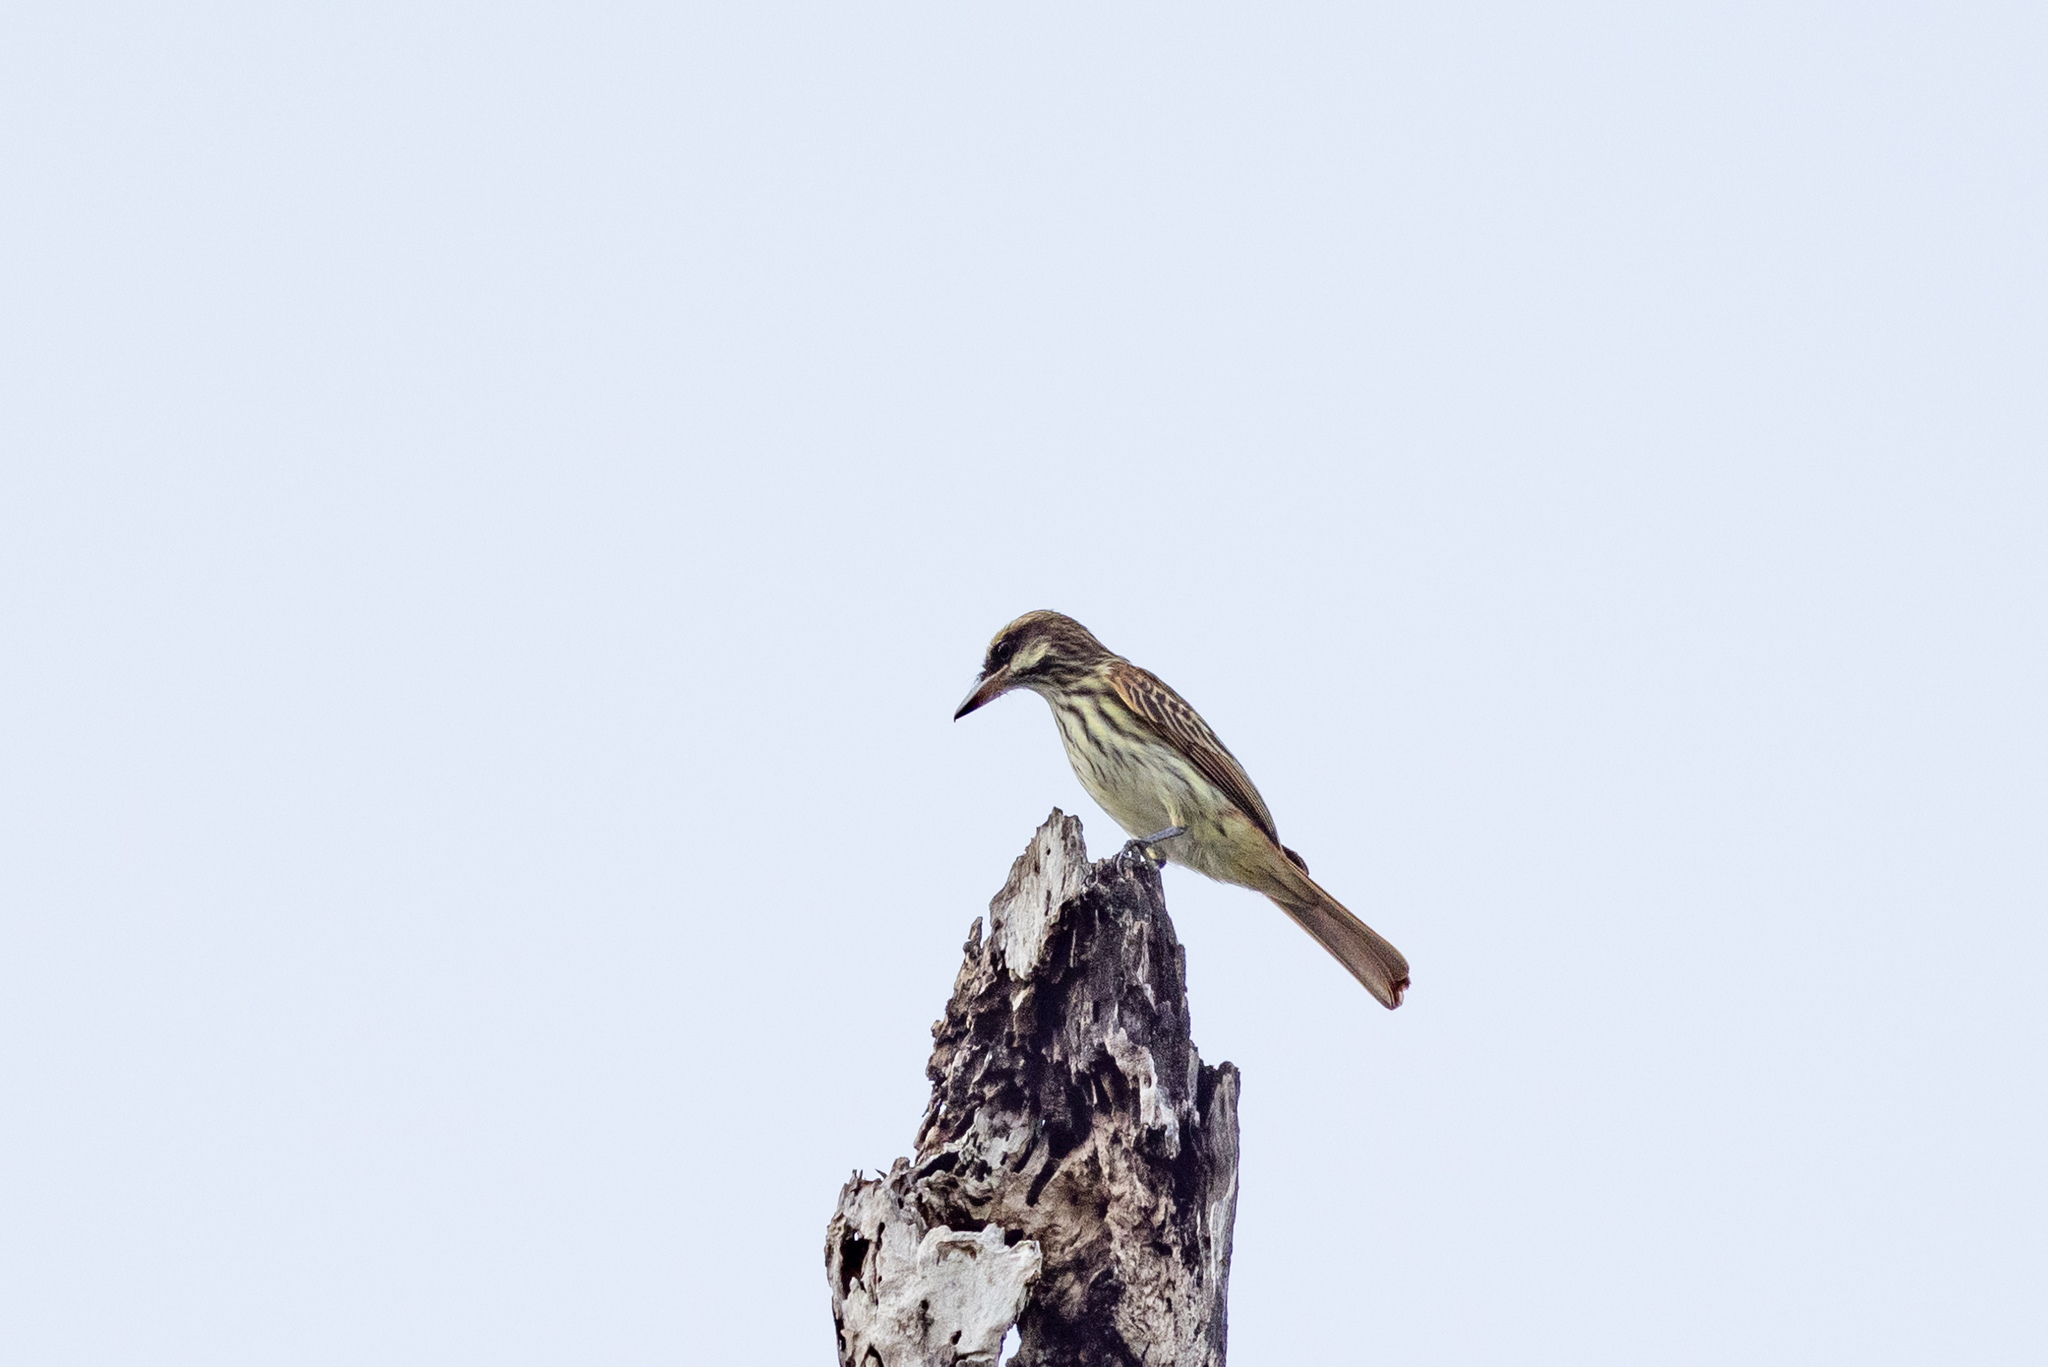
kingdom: Animalia
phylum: Chordata
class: Aves
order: Passeriformes
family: Tyrannidae
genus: Myiodynastes
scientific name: Myiodynastes maculatus
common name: Streaked flycatcher
